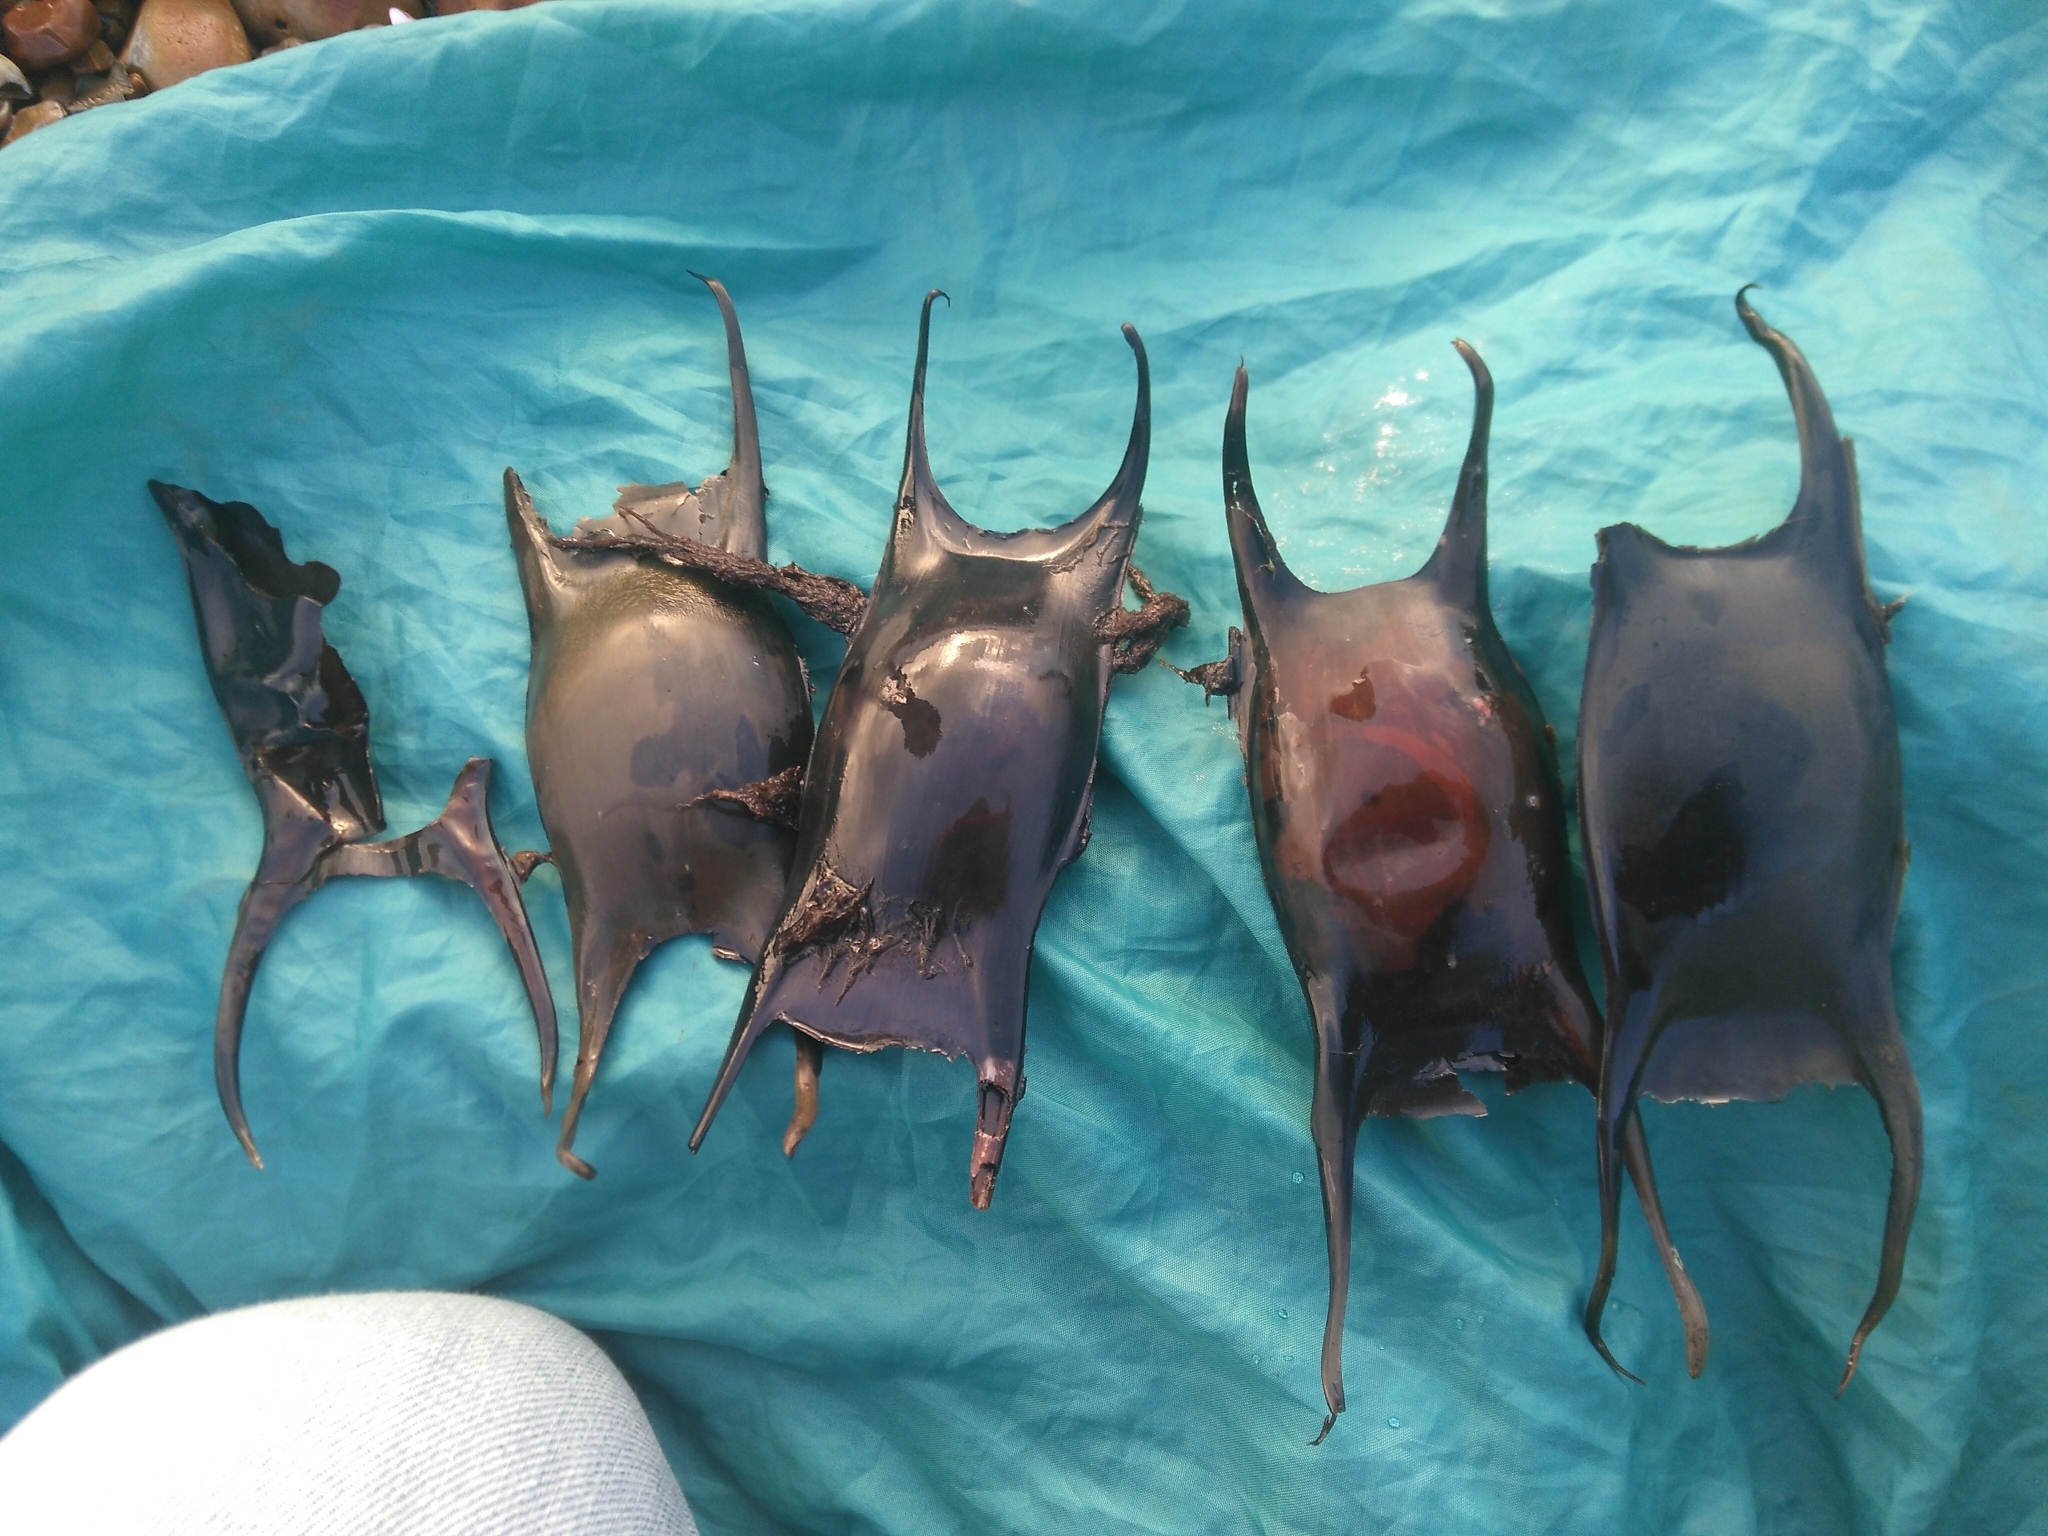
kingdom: Animalia
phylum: Chordata
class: Elasmobranchii
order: Rajiformes
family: Rajidae
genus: Raja
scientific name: Raja montagui
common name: Spotted ray
